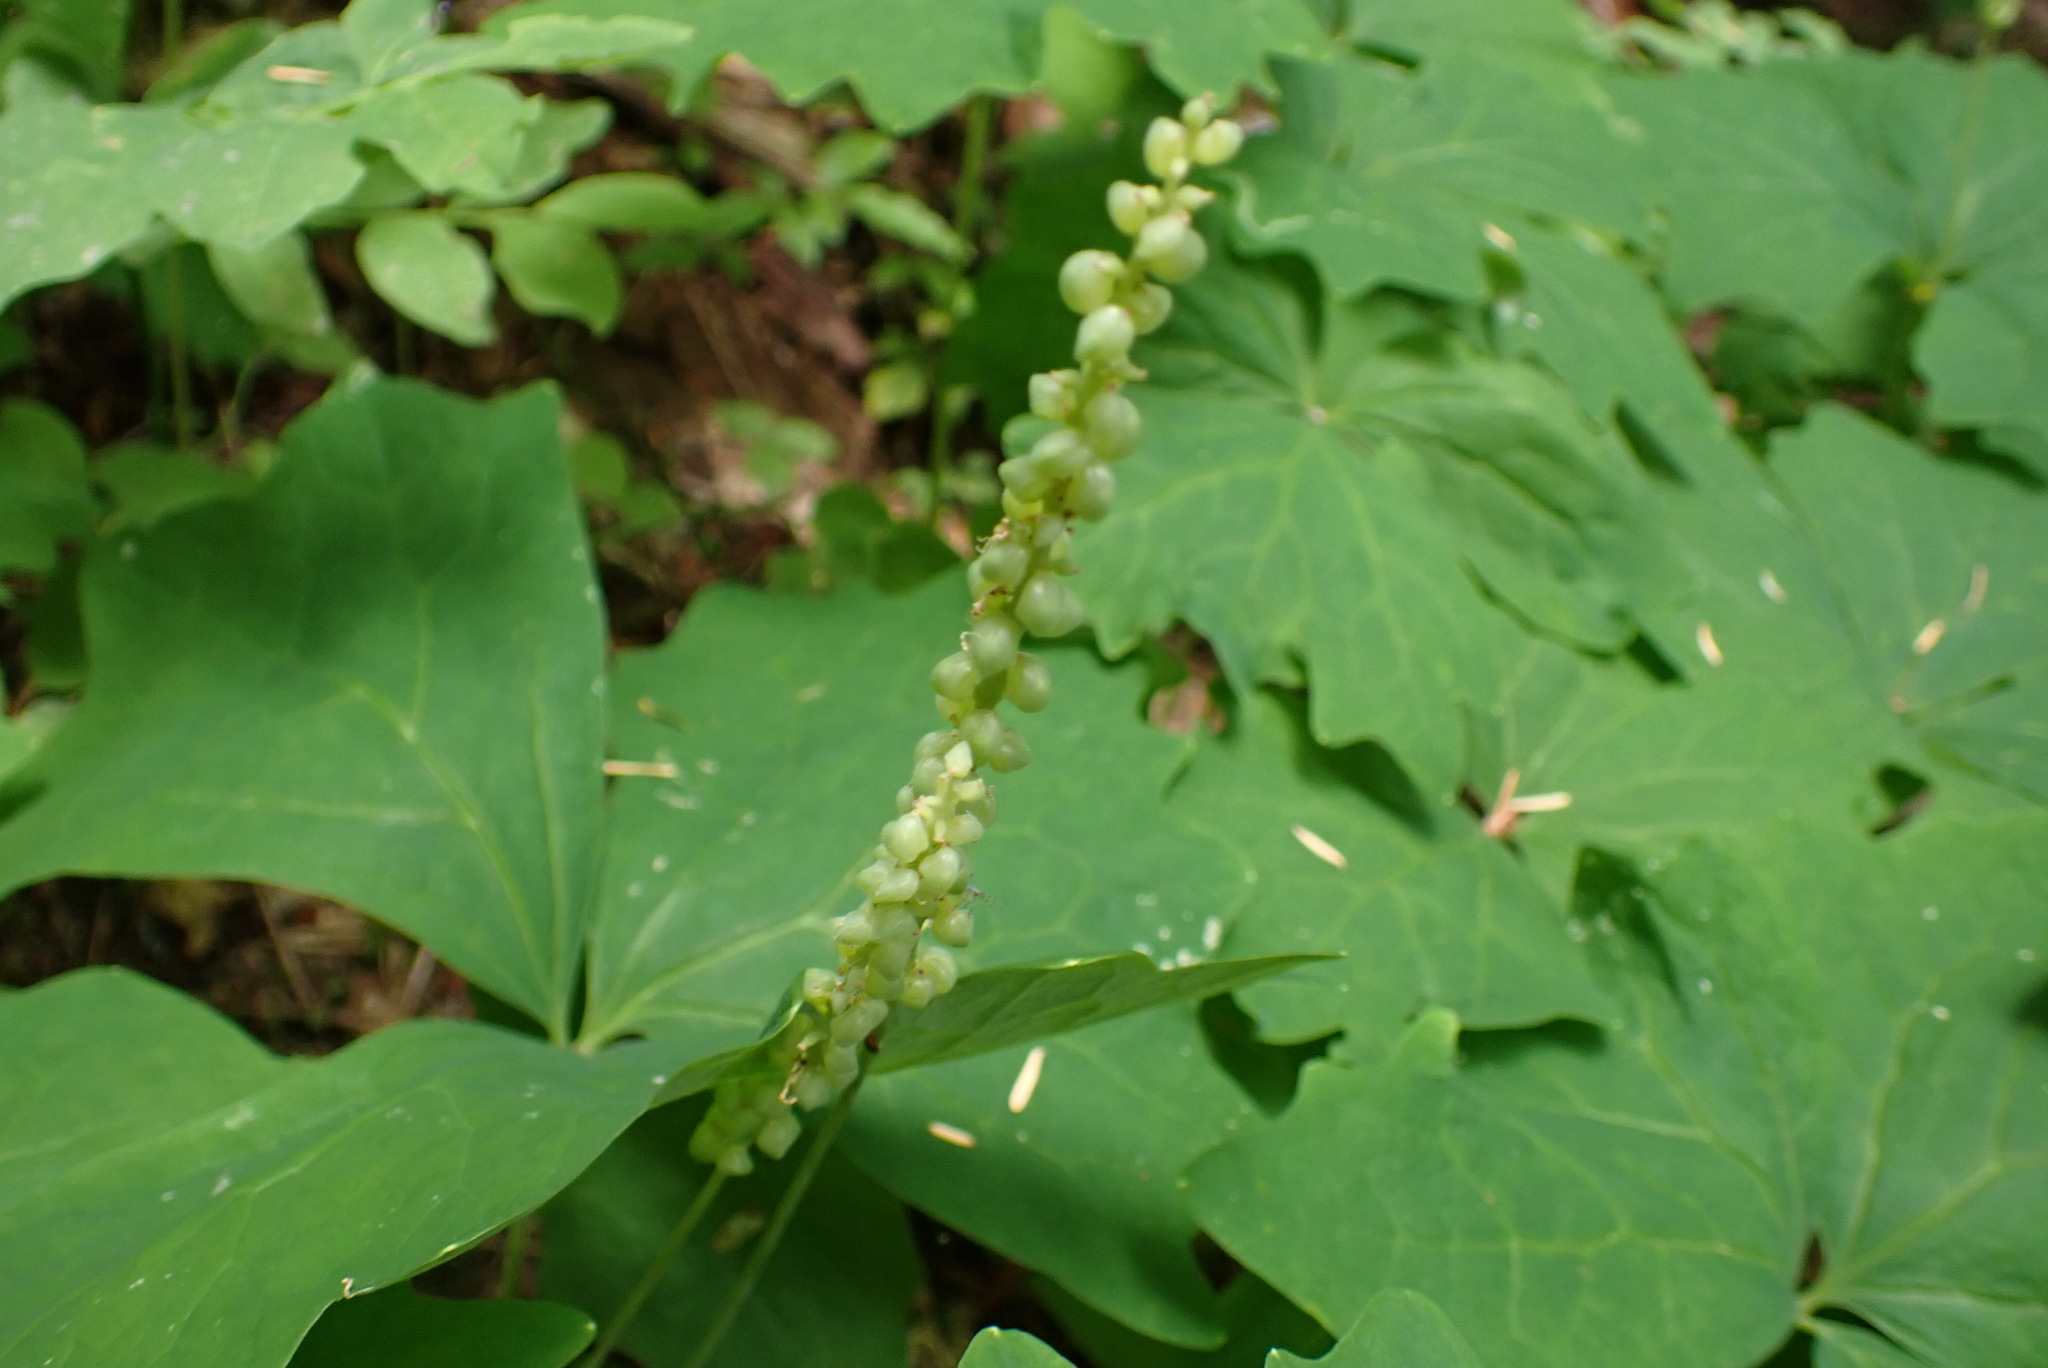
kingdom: Plantae
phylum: Tracheophyta
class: Magnoliopsida
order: Ranunculales
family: Berberidaceae
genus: Achlys
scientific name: Achlys triphylla
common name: Vanilla-leaf
